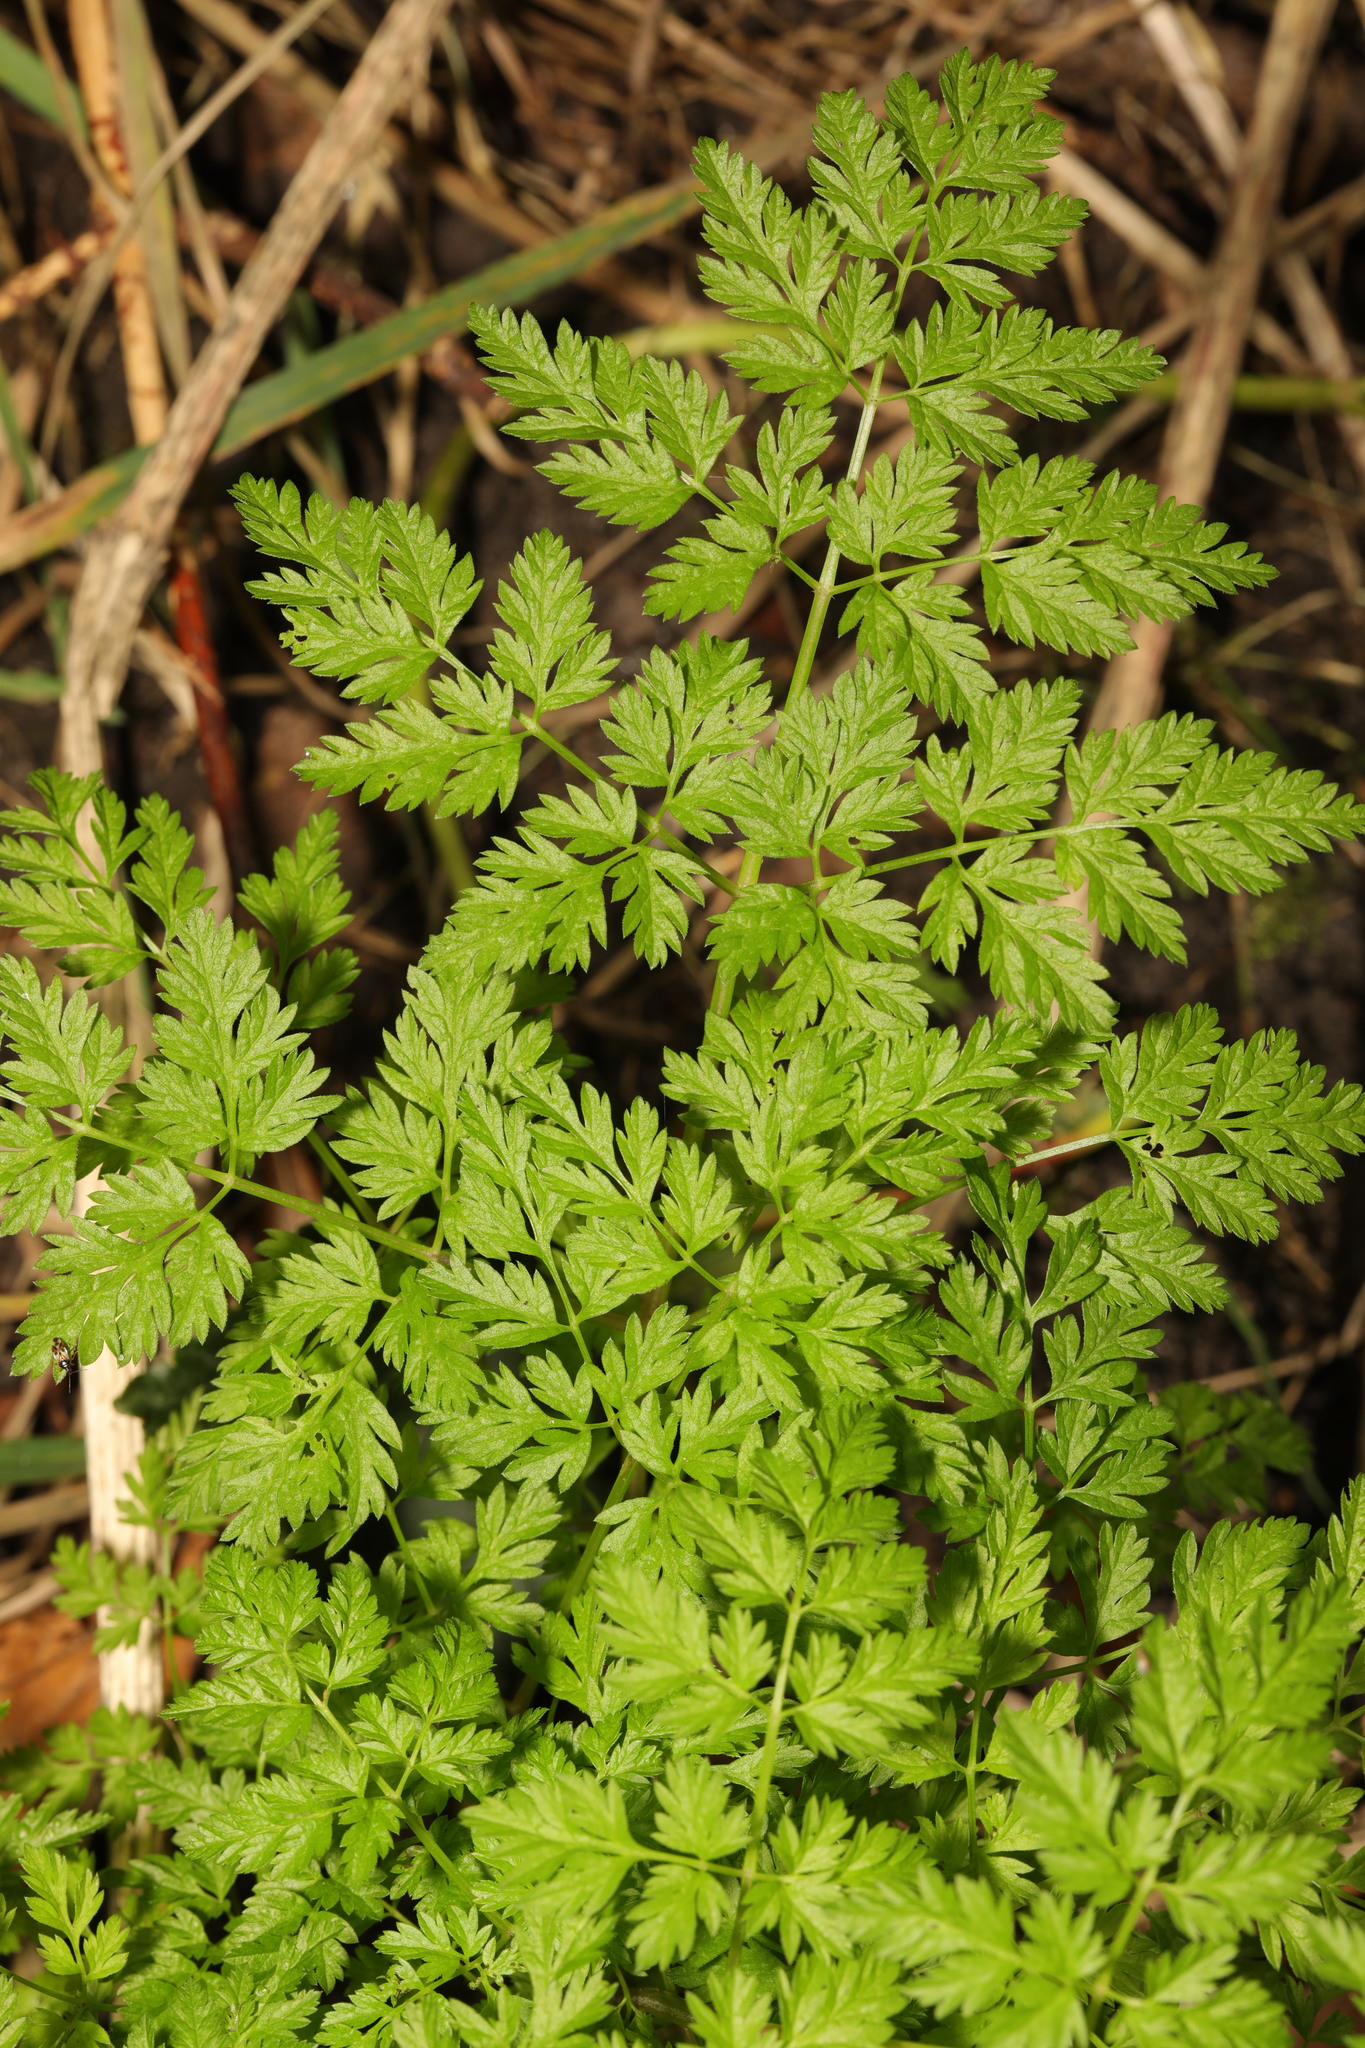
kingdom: Plantae
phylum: Tracheophyta
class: Magnoliopsida
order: Apiales
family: Apiaceae
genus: Anthriscus
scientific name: Anthriscus sylvestris
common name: Cow parsley
